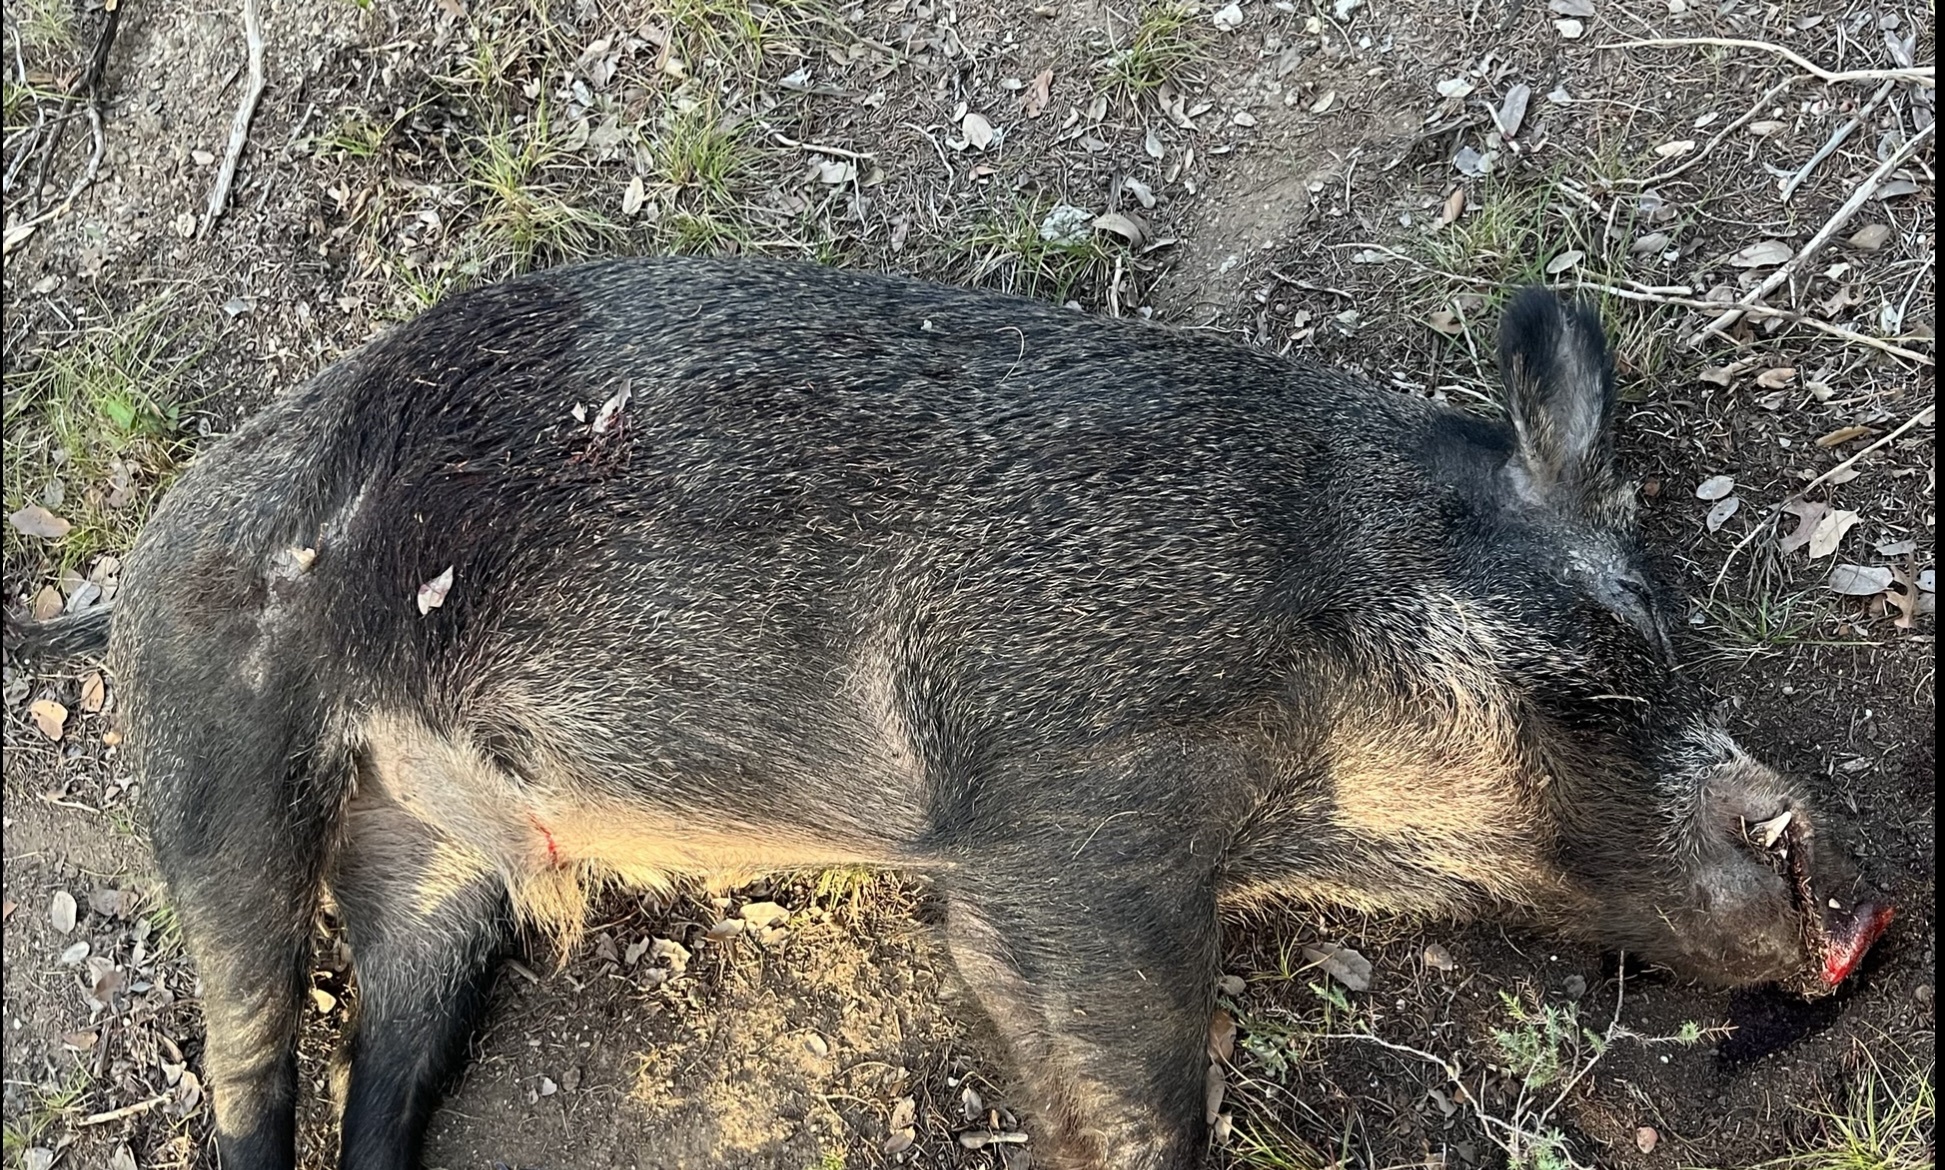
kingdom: Animalia
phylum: Chordata
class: Mammalia
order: Artiodactyla
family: Suidae
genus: Sus
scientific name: Sus scrofa
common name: Wild boar
